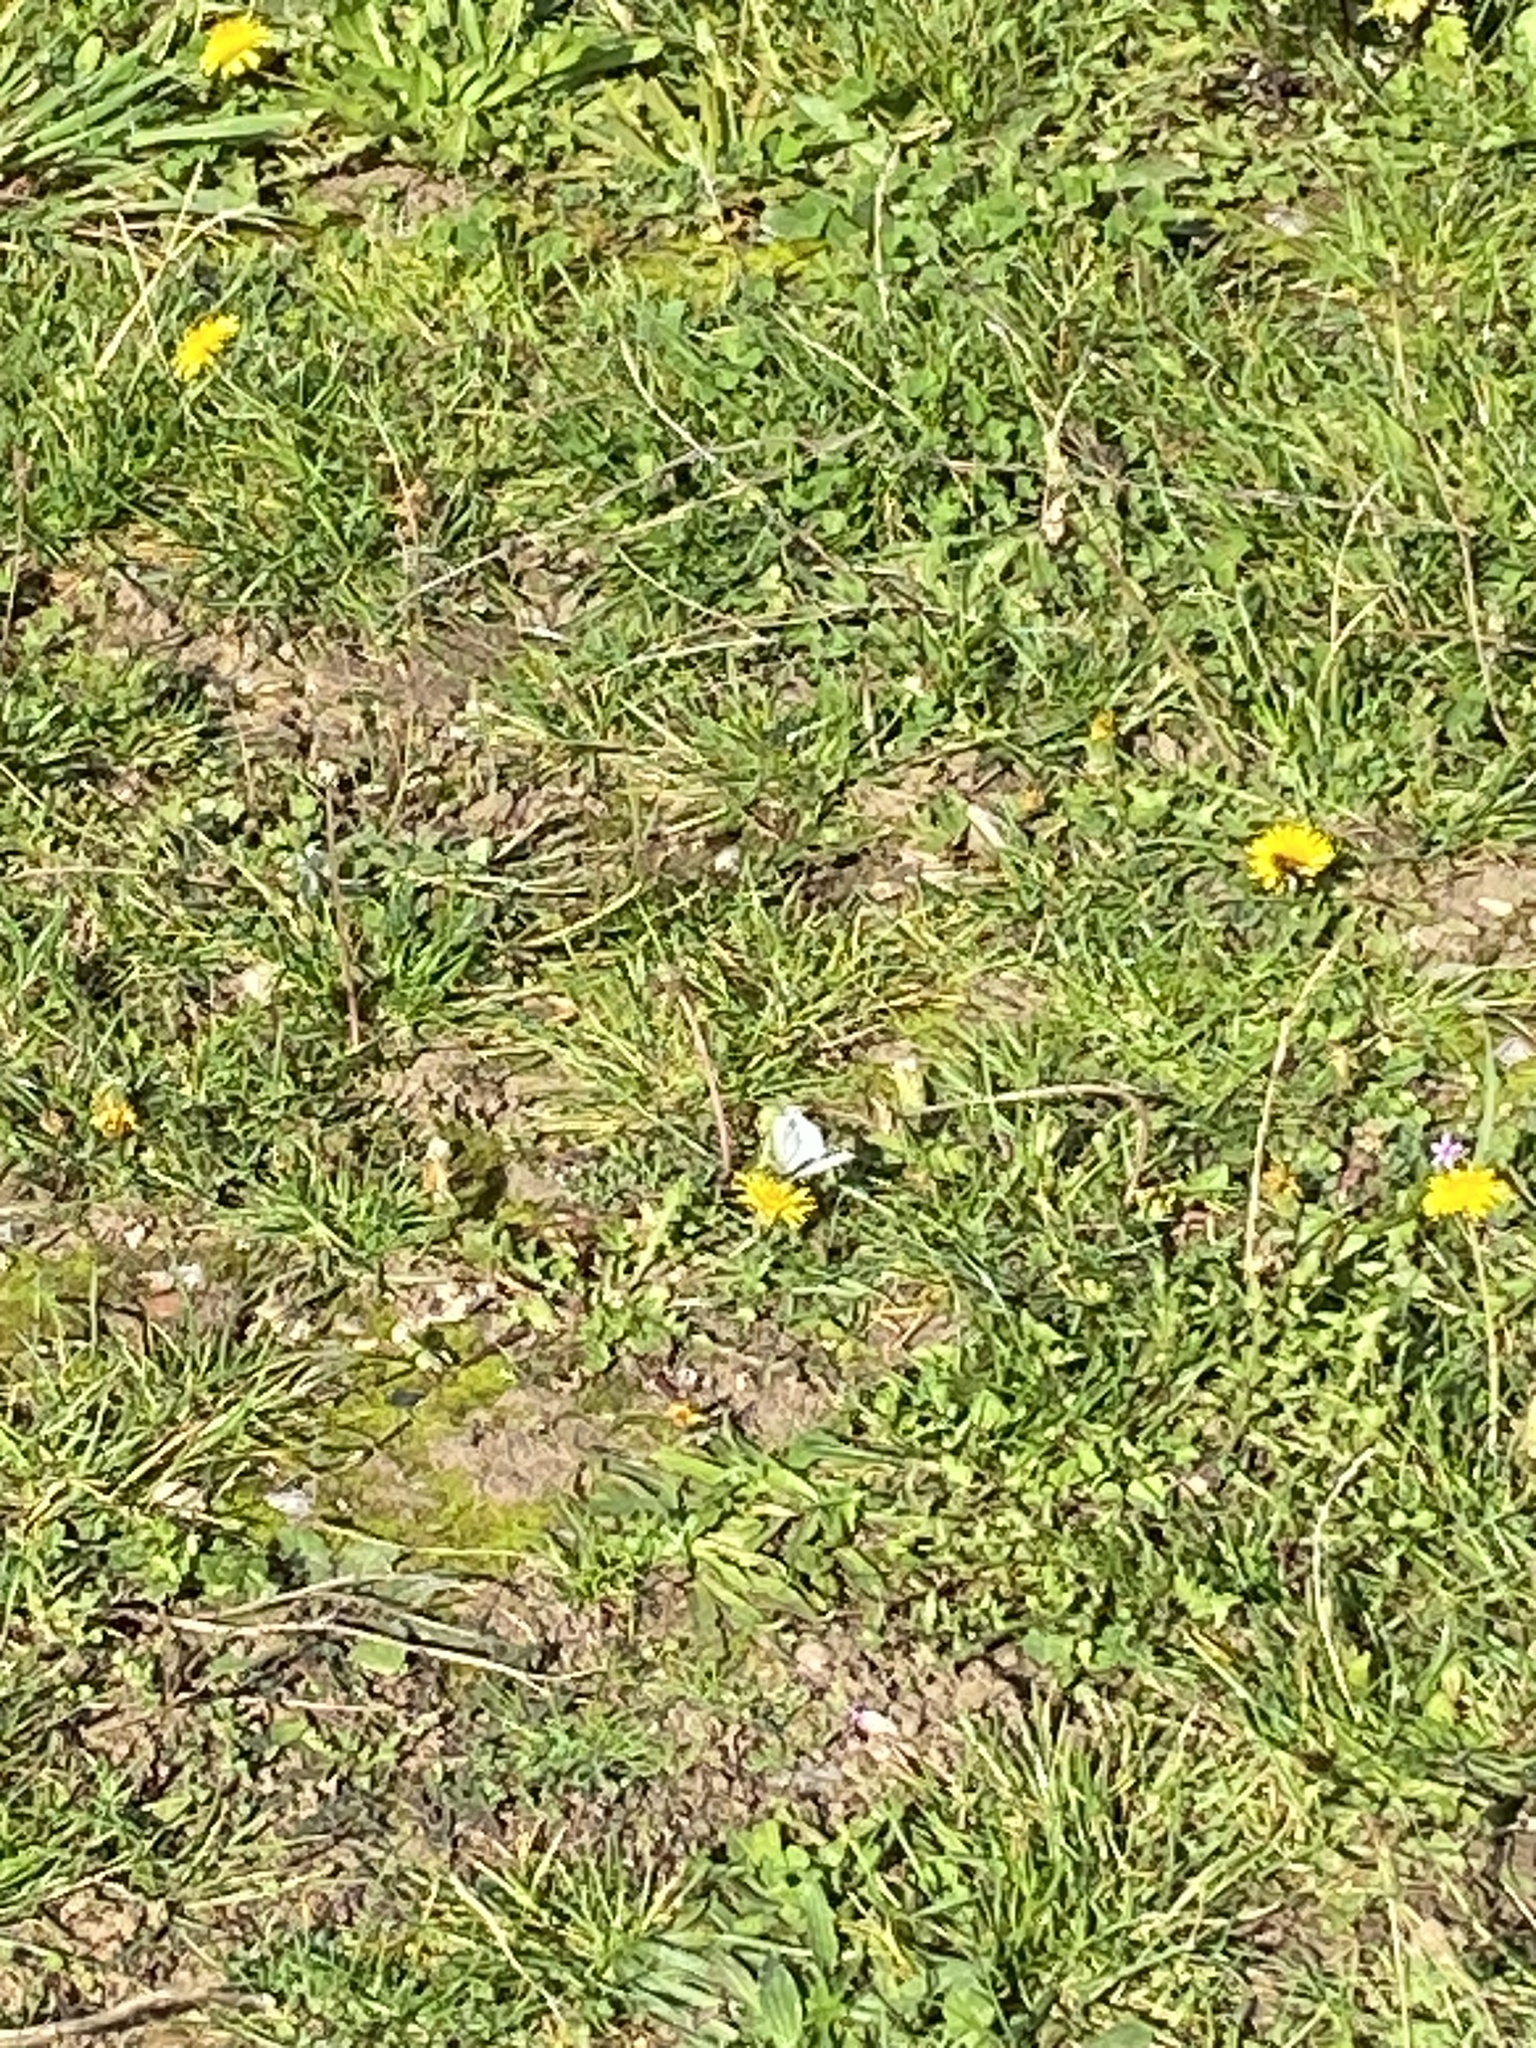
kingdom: Animalia
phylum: Arthropoda
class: Insecta
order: Lepidoptera
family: Pieridae
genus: Pieris
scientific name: Pieris napi
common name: Green-veined white
